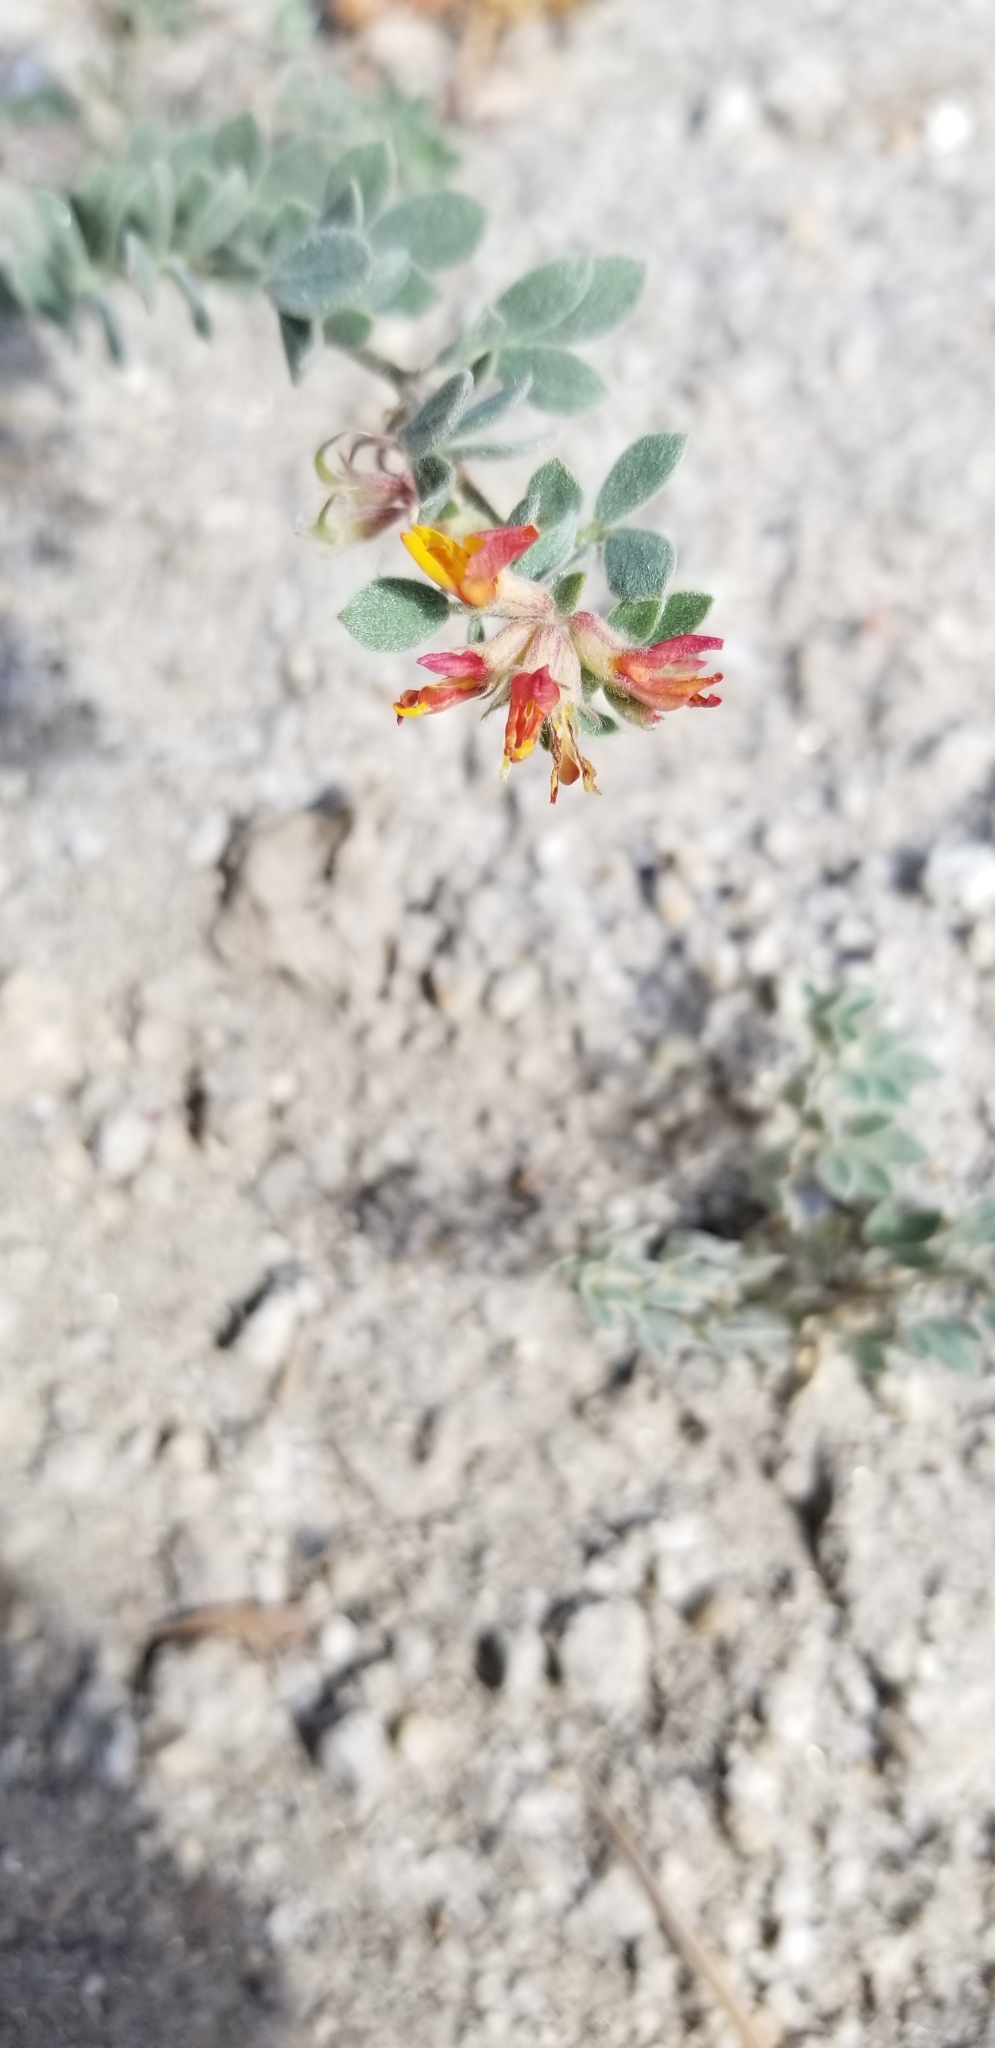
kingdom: Plantae
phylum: Tracheophyta
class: Magnoliopsida
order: Fabales
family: Fabaceae
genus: Acmispon
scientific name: Acmispon decumbens
